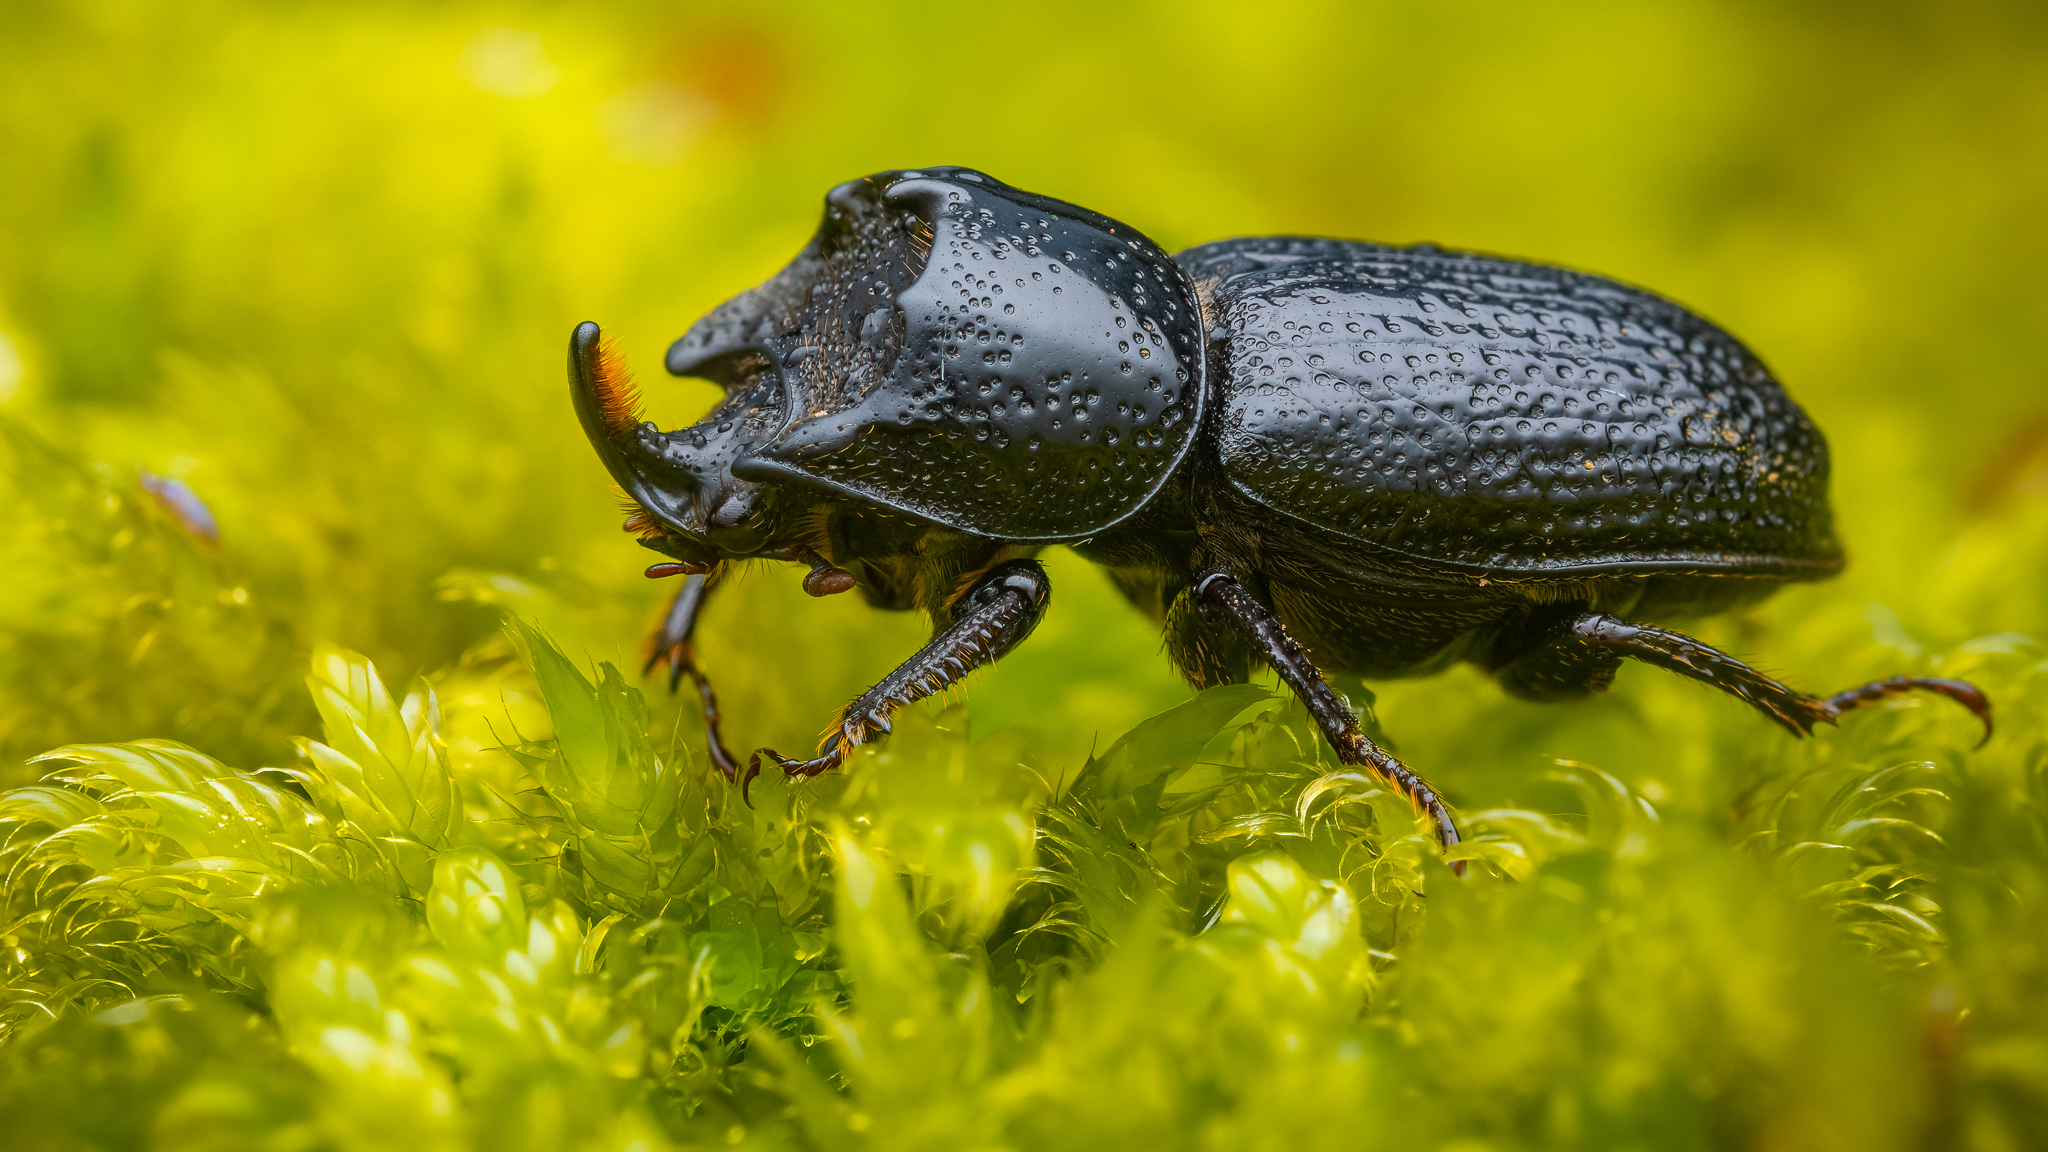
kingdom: Animalia
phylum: Arthropoda
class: Insecta
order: Coleoptera
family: Lucanidae
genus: Sinodendron
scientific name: Sinodendron cylindricum
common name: Rhinoceros beetle
